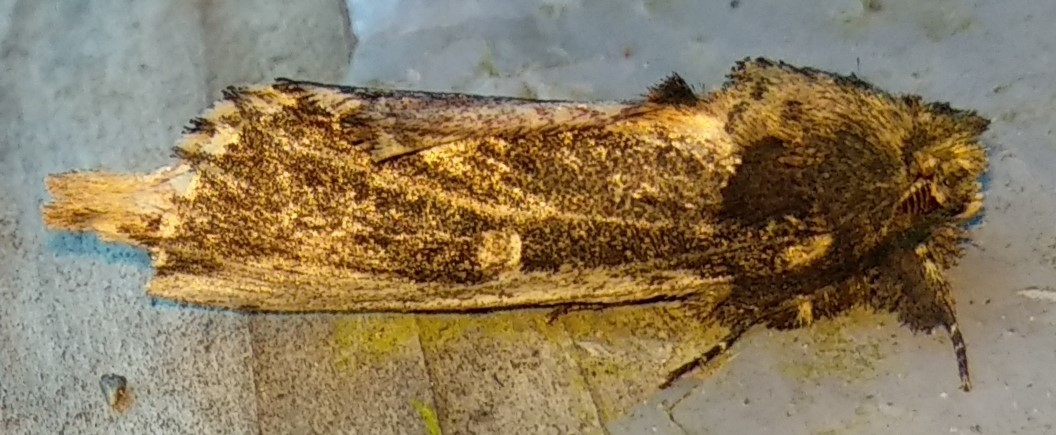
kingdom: Animalia
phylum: Arthropoda
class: Insecta
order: Lepidoptera
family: Notodontidae
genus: Schizura
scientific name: Schizura ipomaeae
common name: Morning-glory prominent
